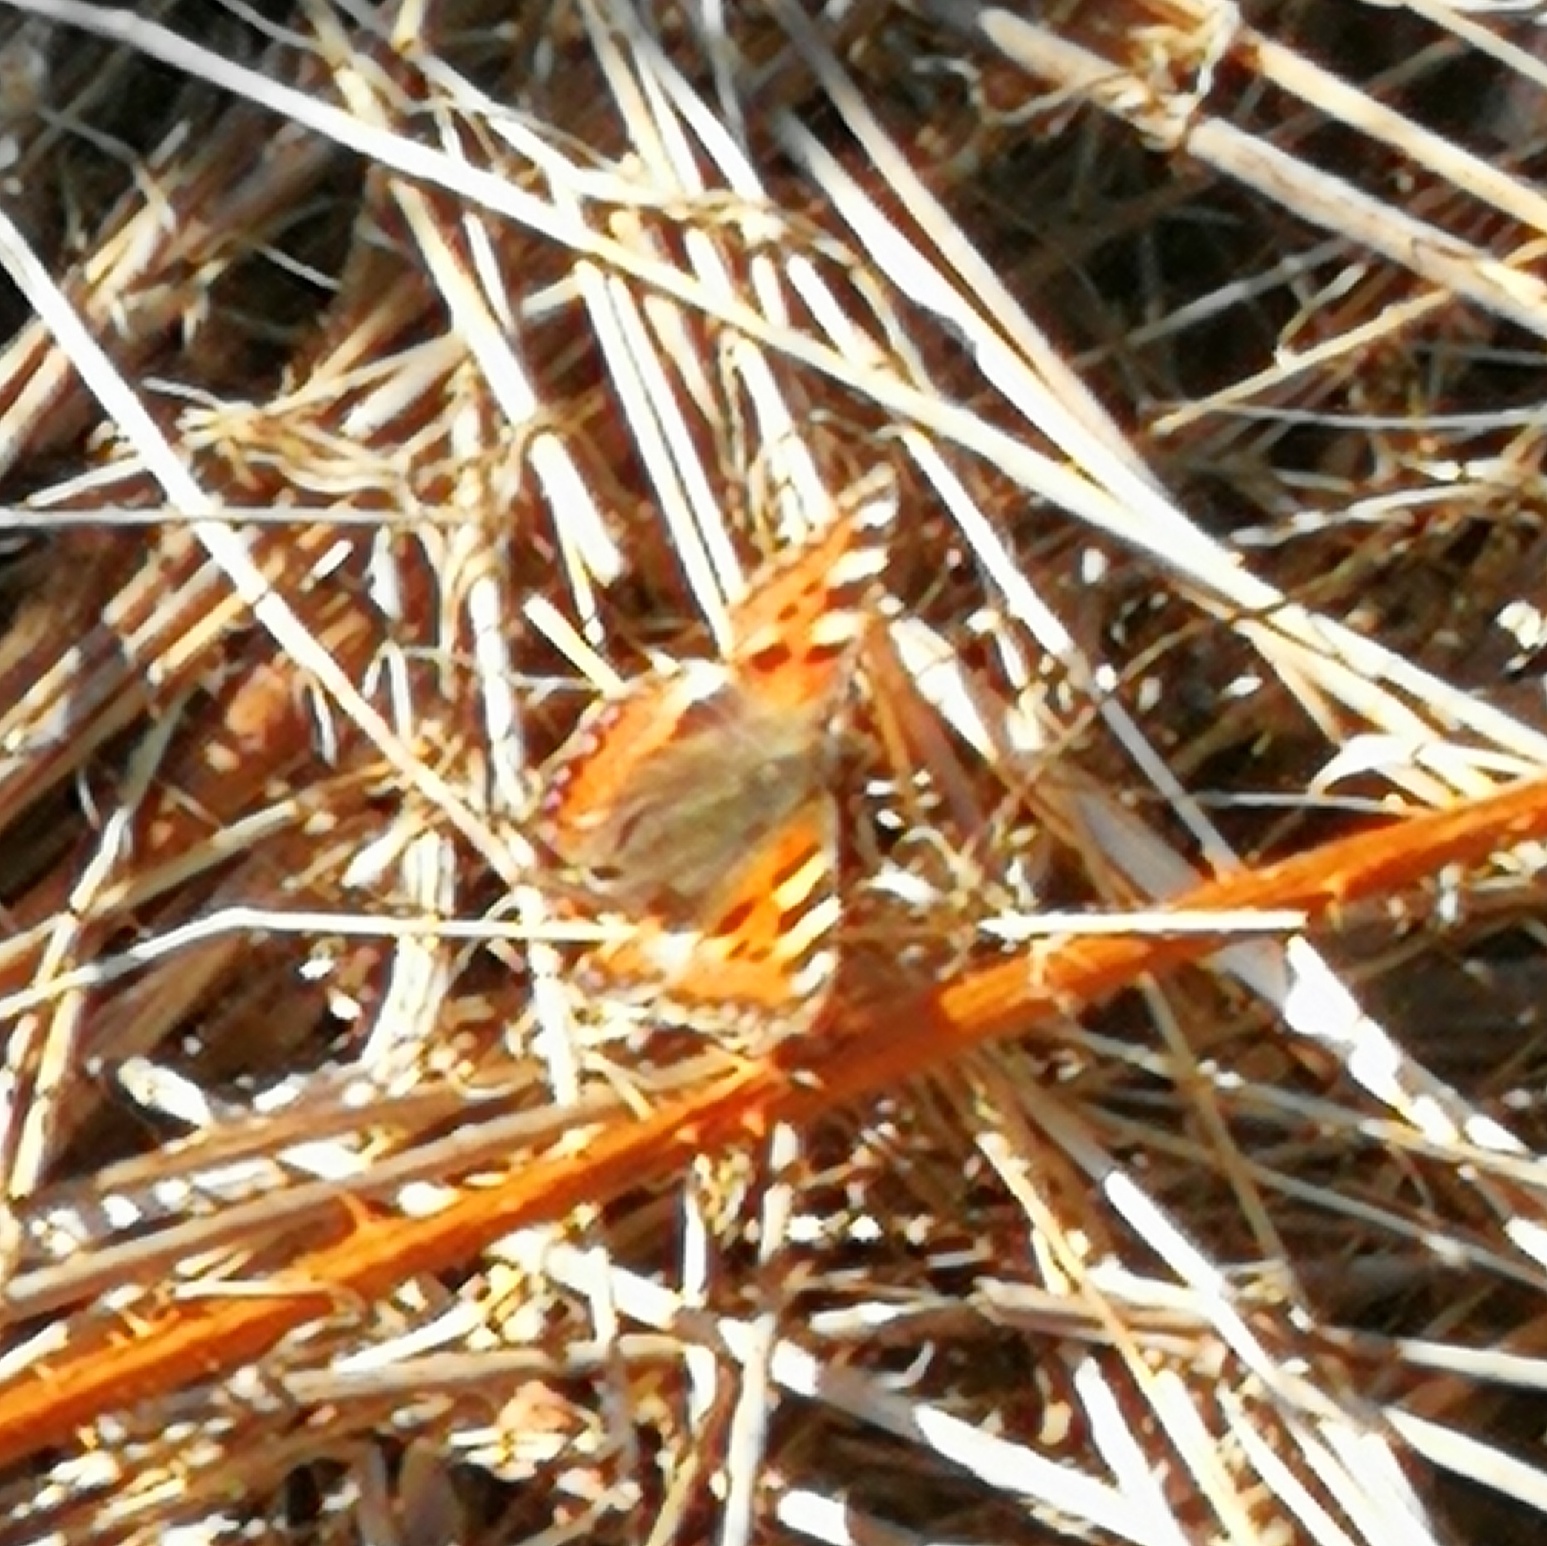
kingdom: Animalia
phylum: Arthropoda
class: Insecta
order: Lepidoptera
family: Nymphalidae
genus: Aglais
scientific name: Aglais urticae
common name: Small tortoiseshell
